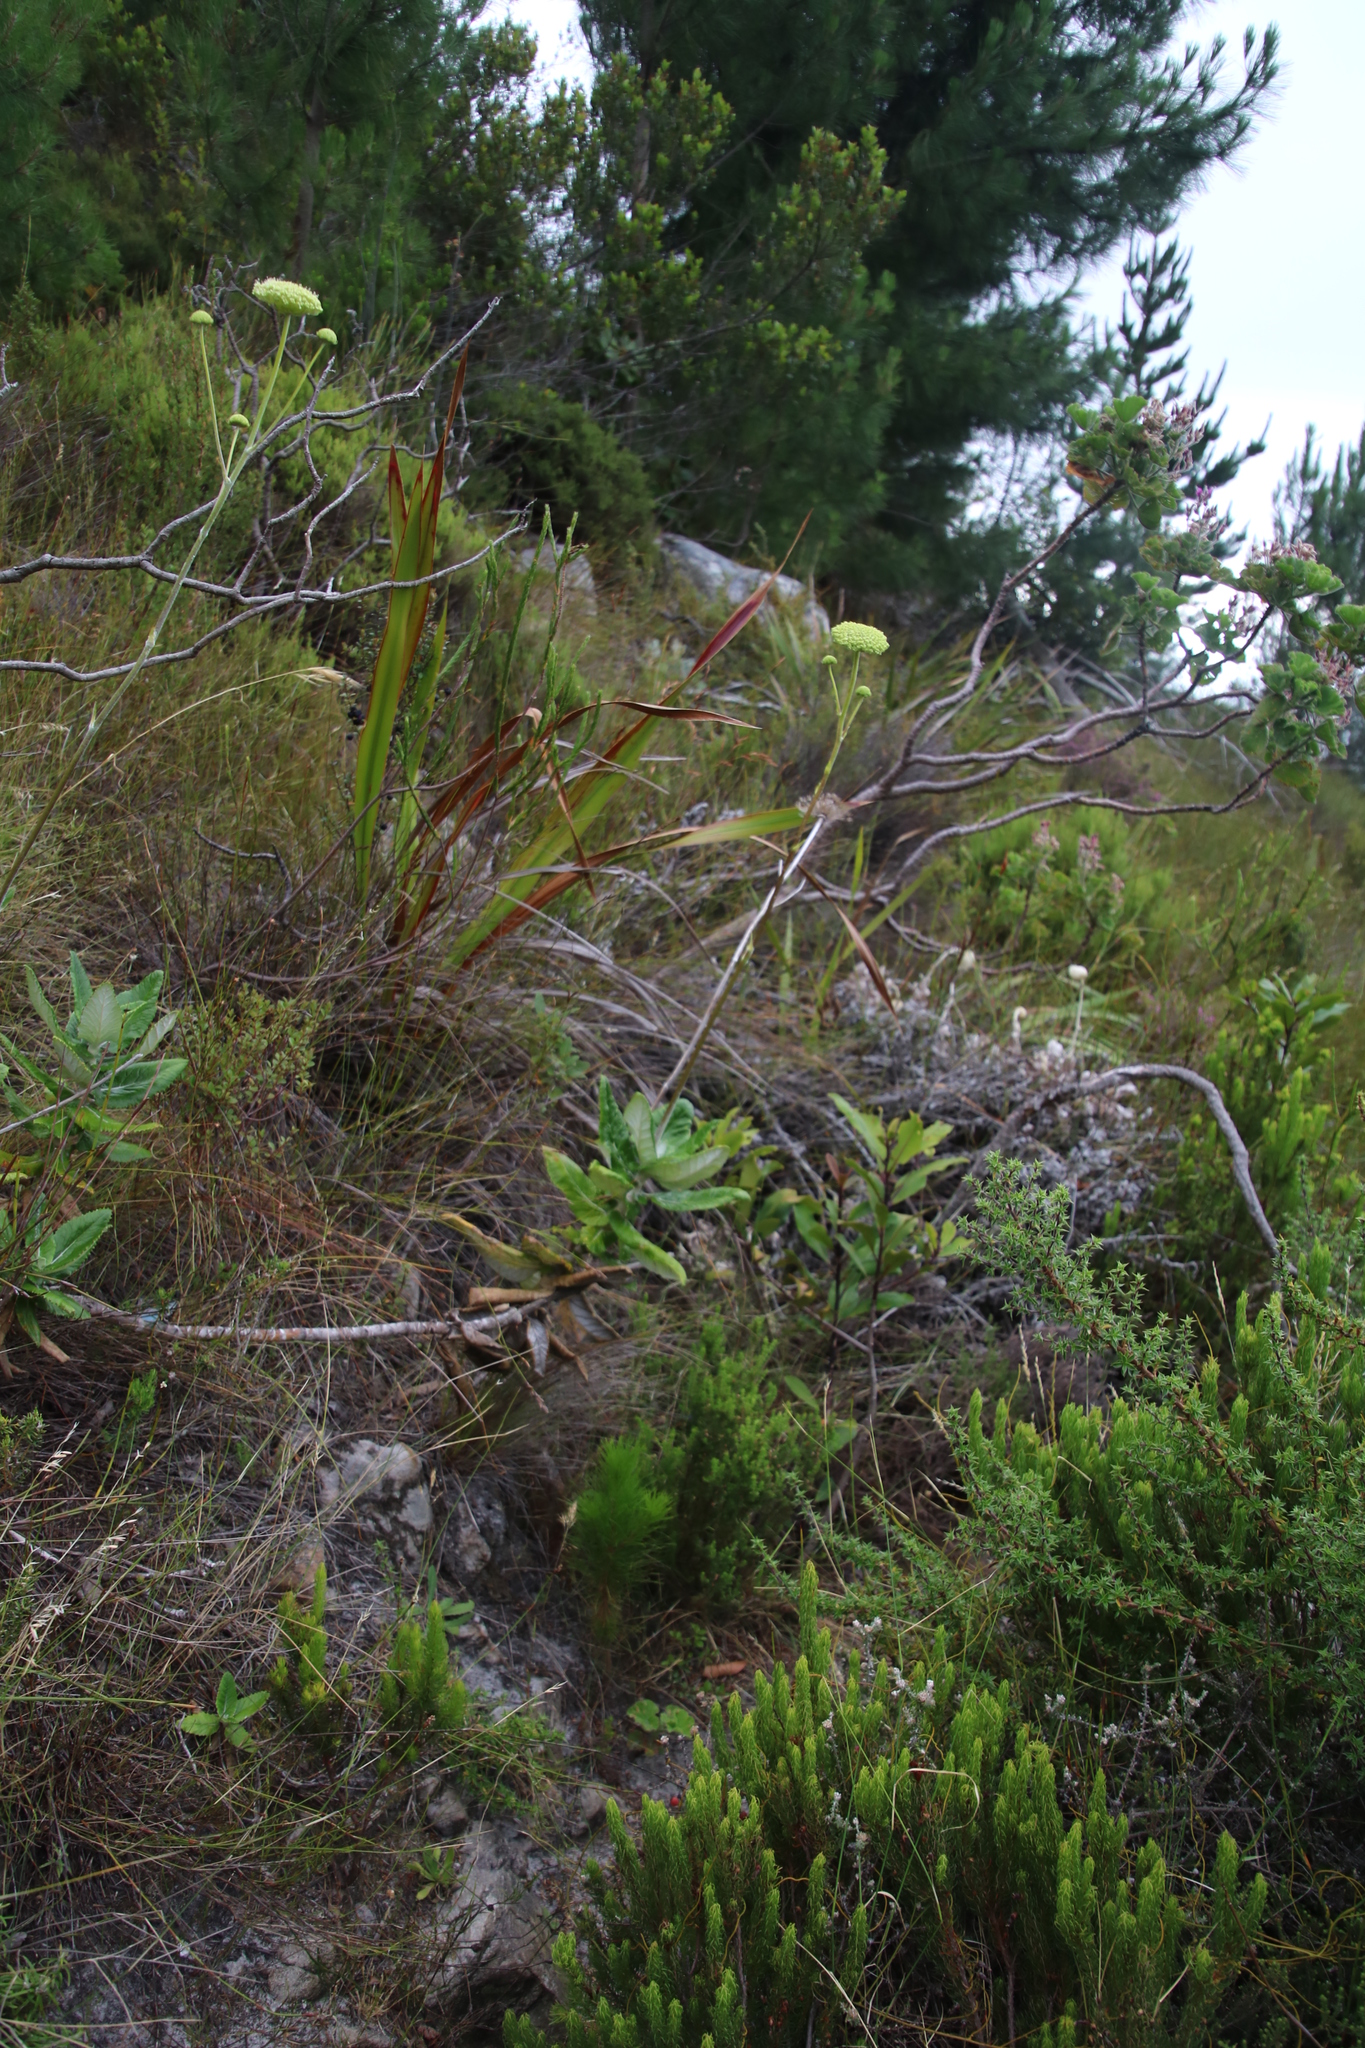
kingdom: Plantae
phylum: Tracheophyta
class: Magnoliopsida
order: Apiales
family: Apiaceae
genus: Hermas
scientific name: Hermas villosa
